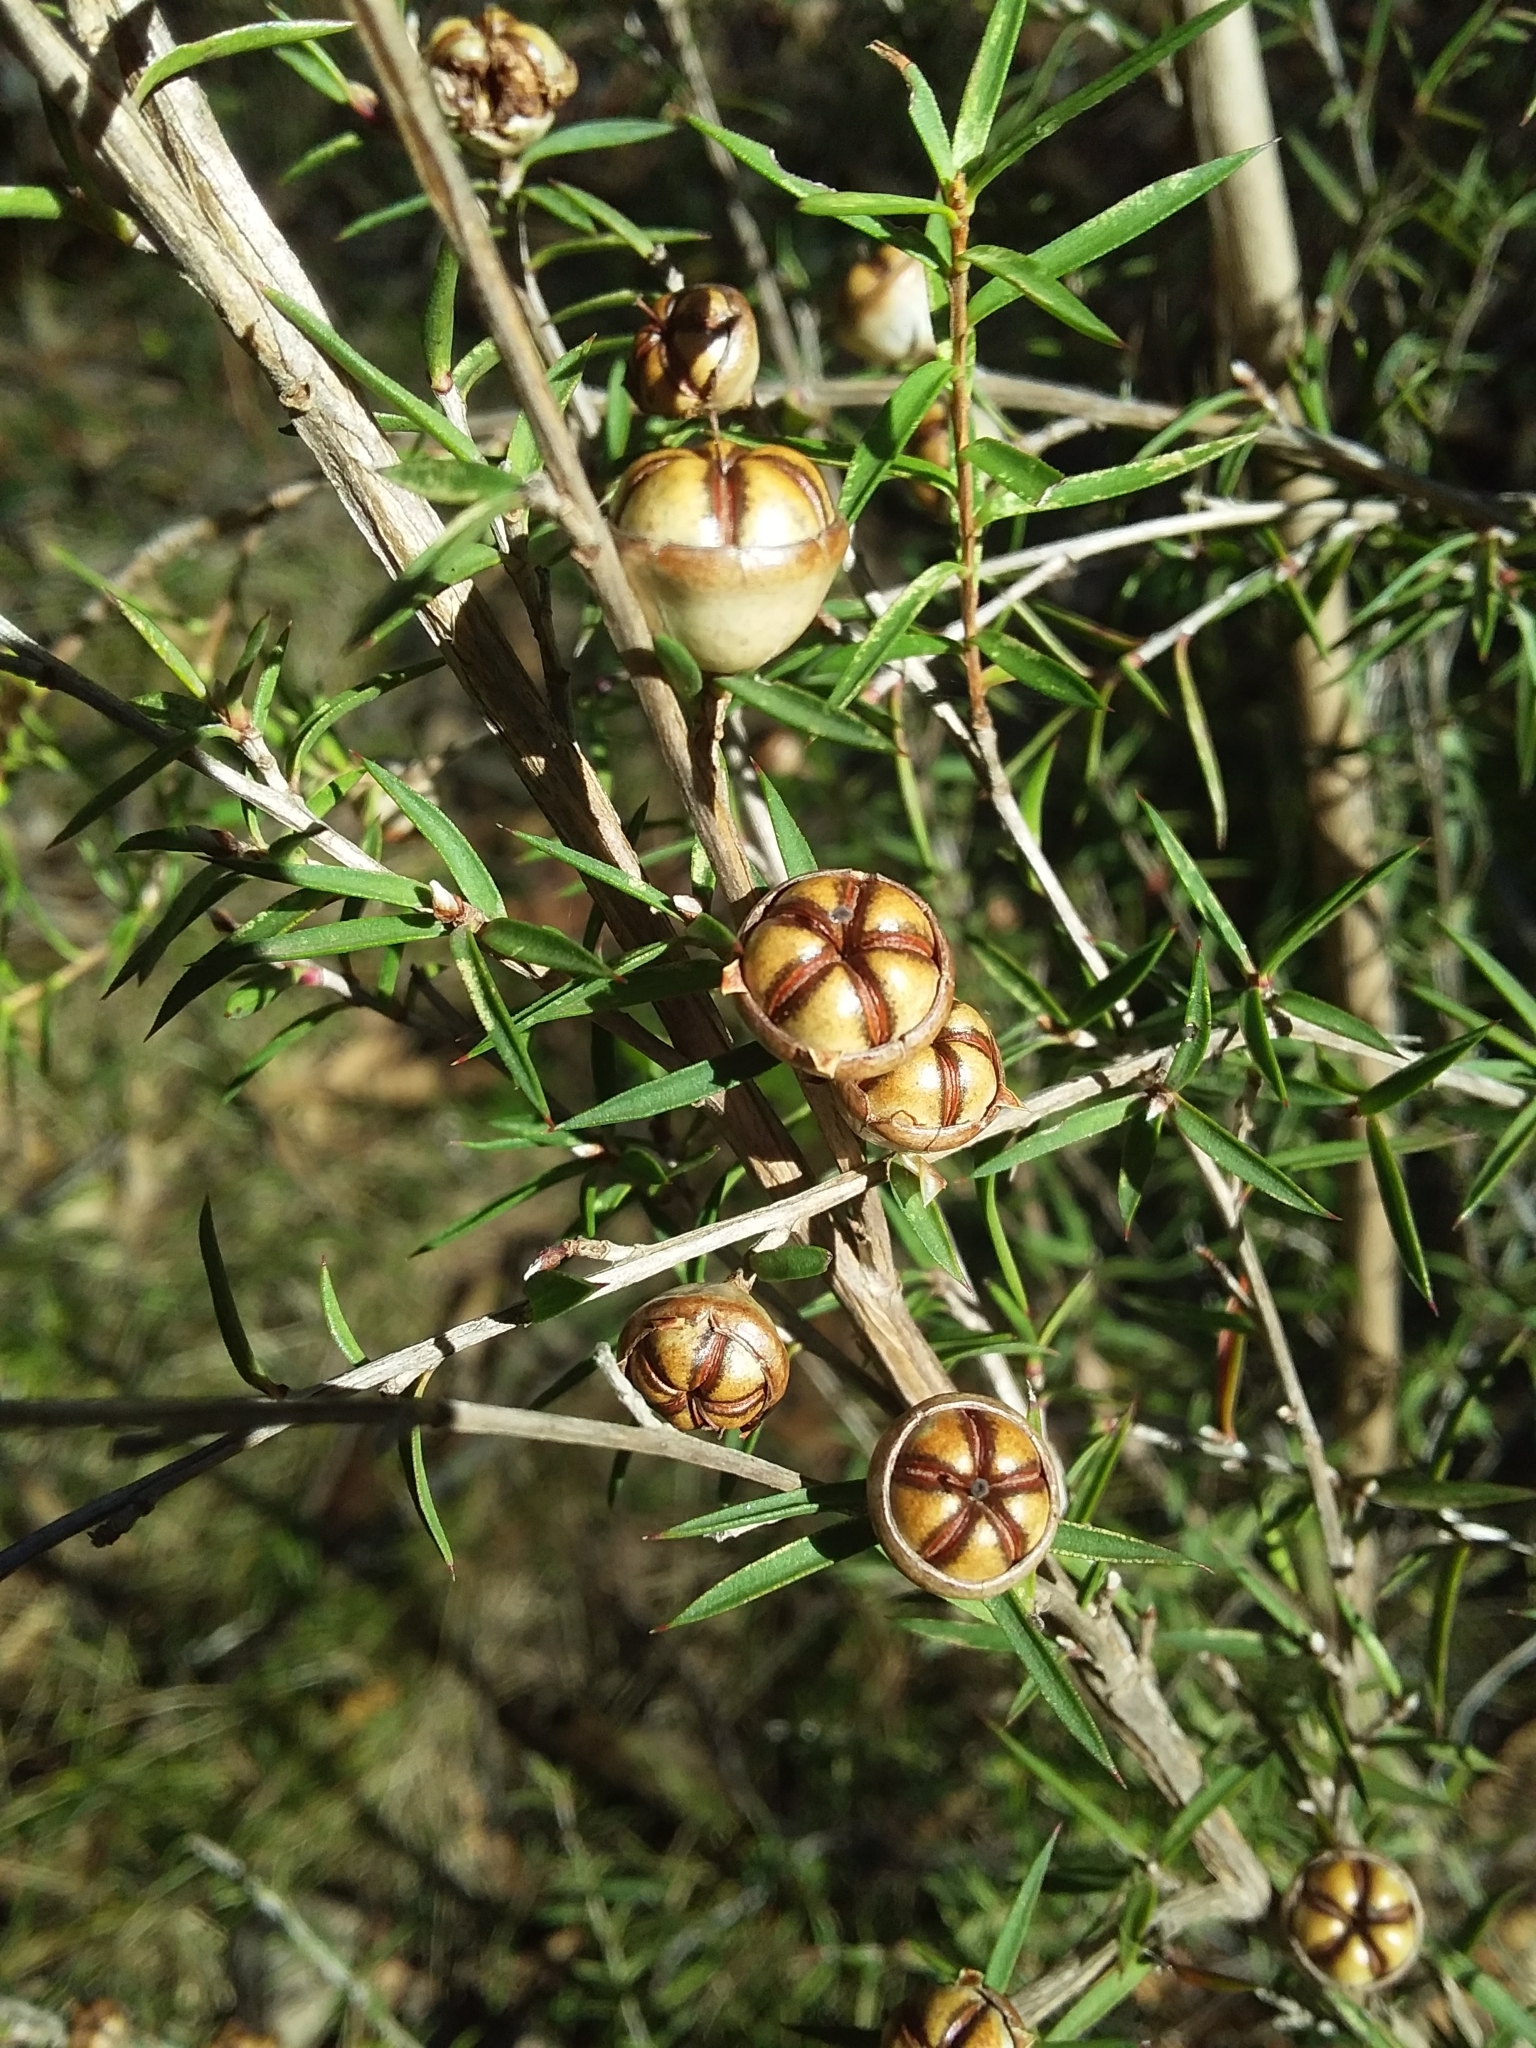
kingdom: Plantae
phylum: Tracheophyta
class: Magnoliopsida
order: Myrtales
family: Myrtaceae
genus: Leptospermum
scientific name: Leptospermum continentale
